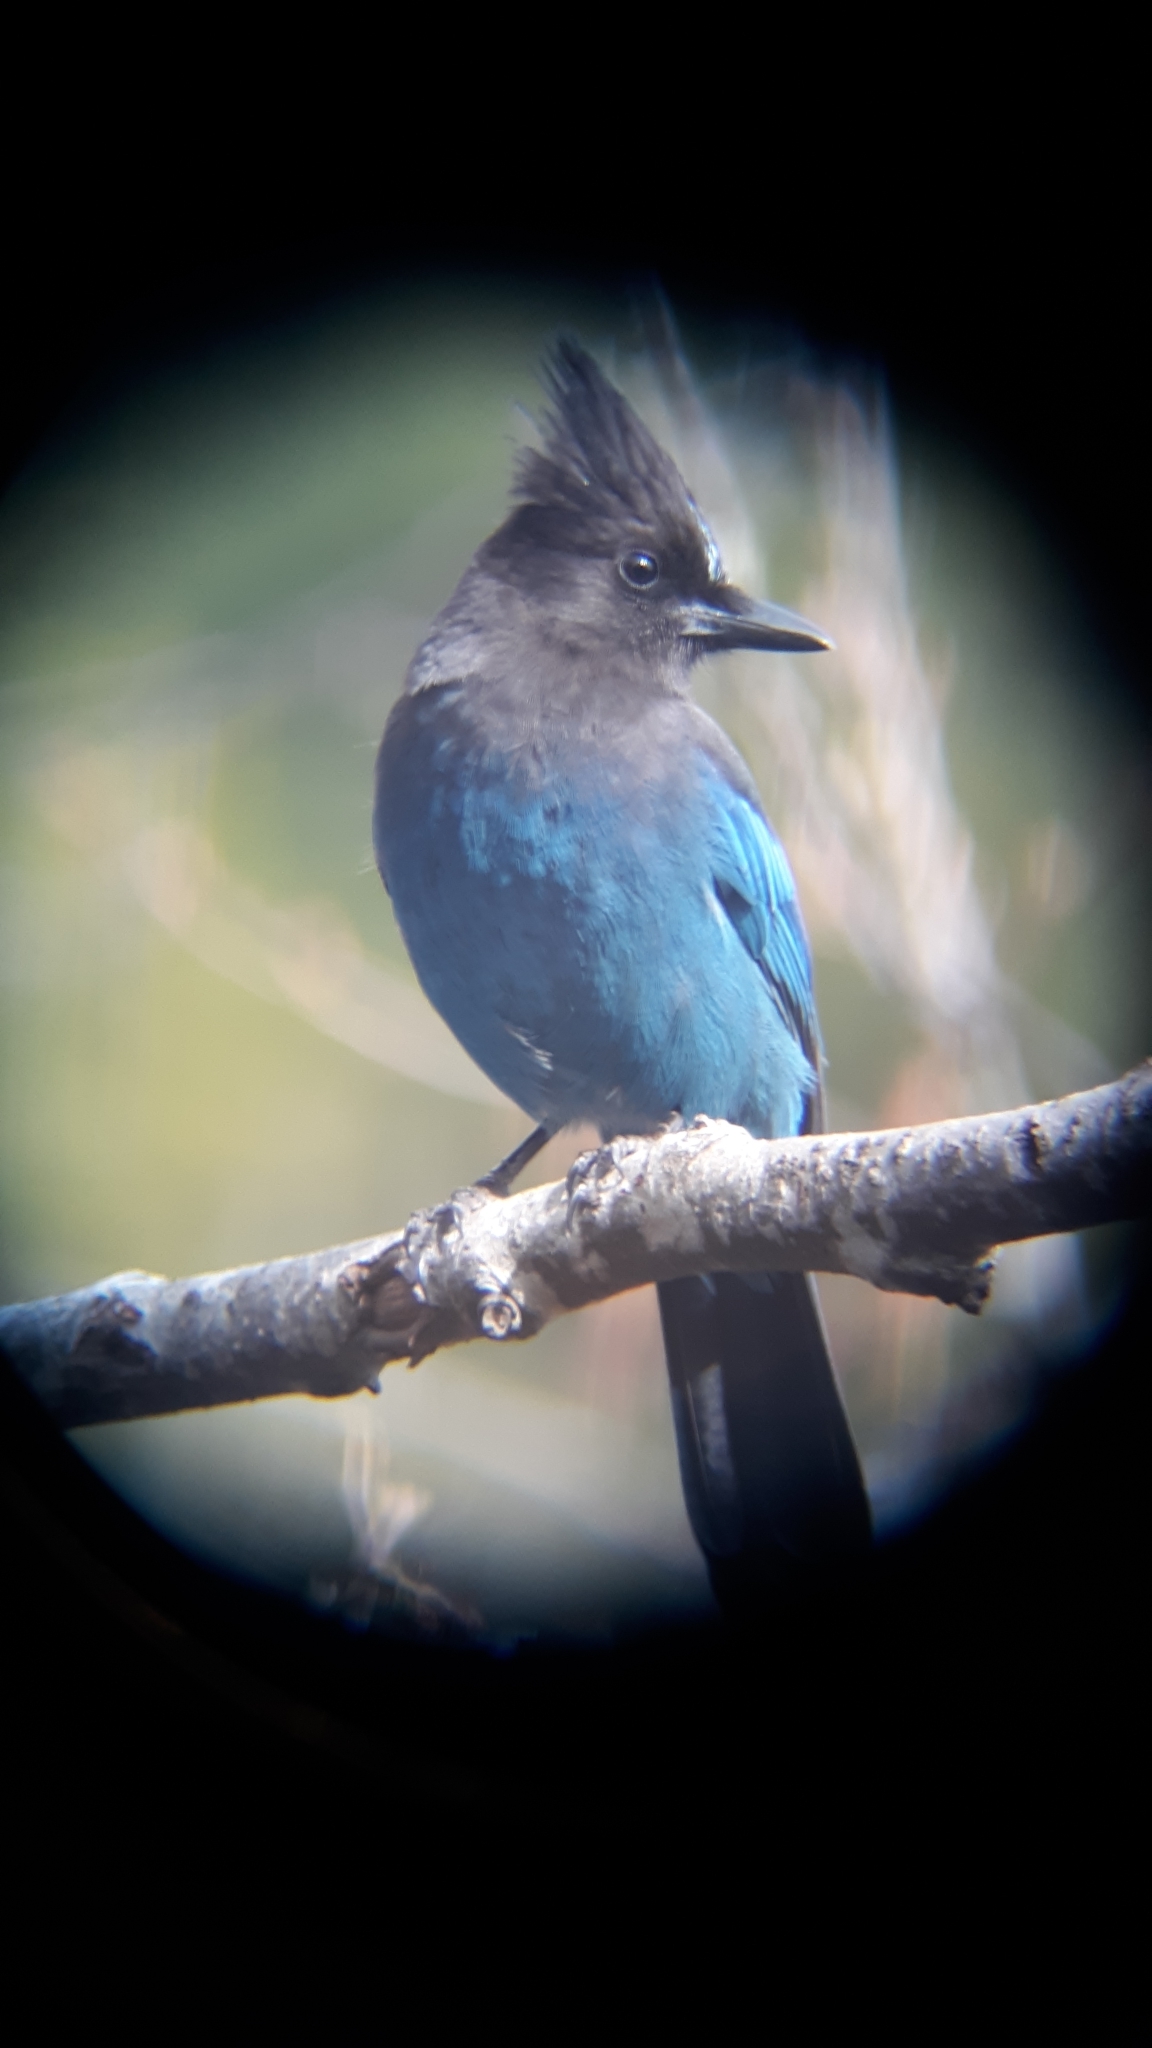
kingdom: Animalia
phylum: Chordata
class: Aves
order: Passeriformes
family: Corvidae
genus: Cyanocitta
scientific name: Cyanocitta stelleri
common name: Steller's jay
